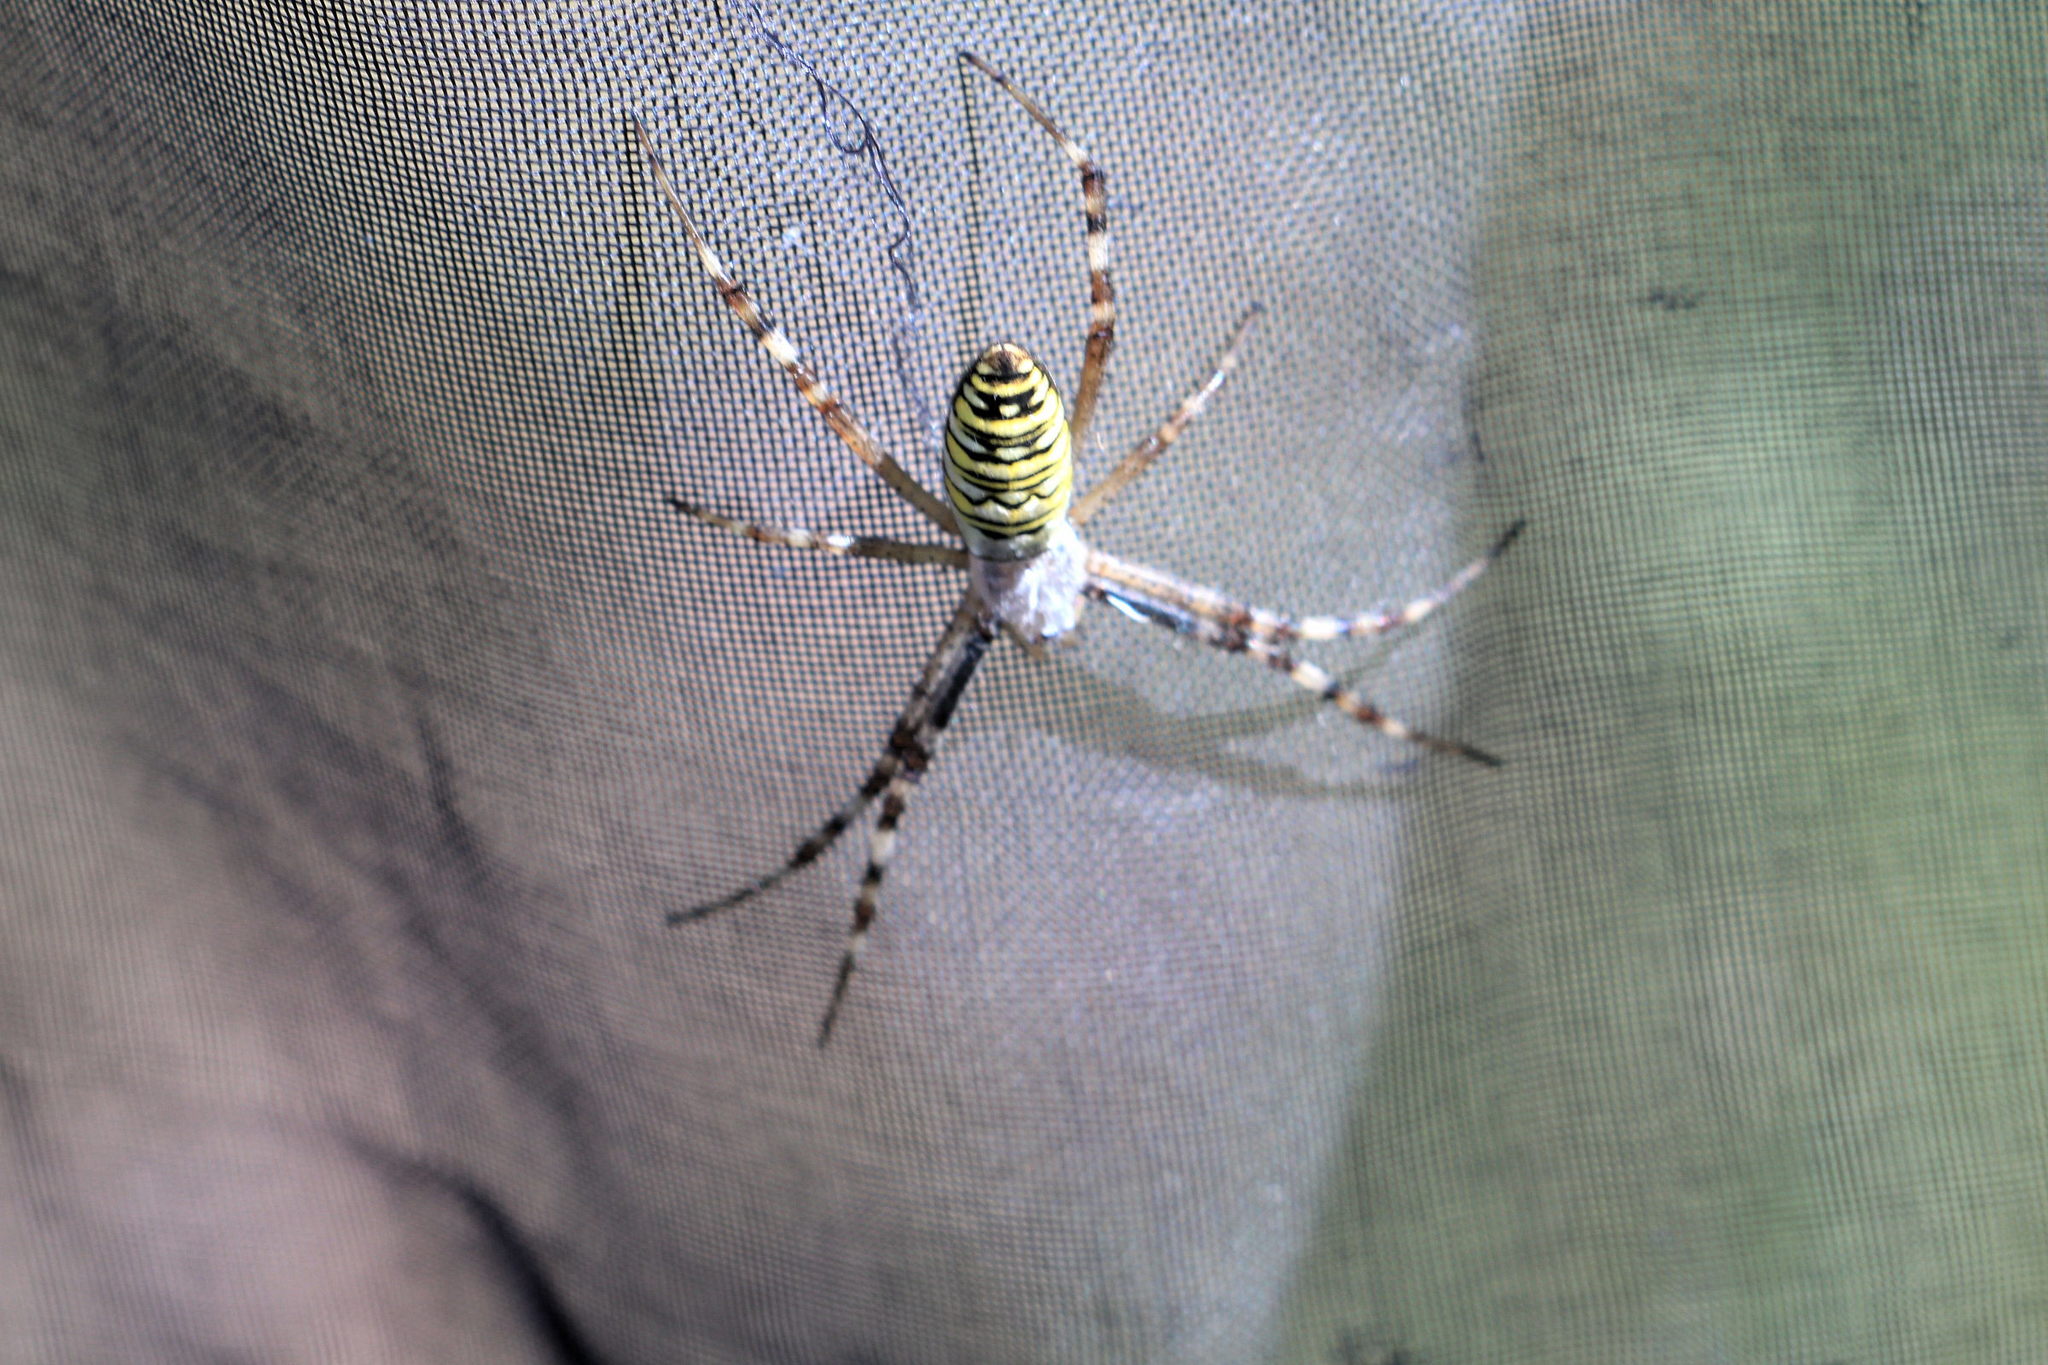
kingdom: Animalia
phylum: Arthropoda
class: Arachnida
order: Araneae
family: Araneidae
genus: Argiope
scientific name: Argiope bruennichi
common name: Wasp spider
